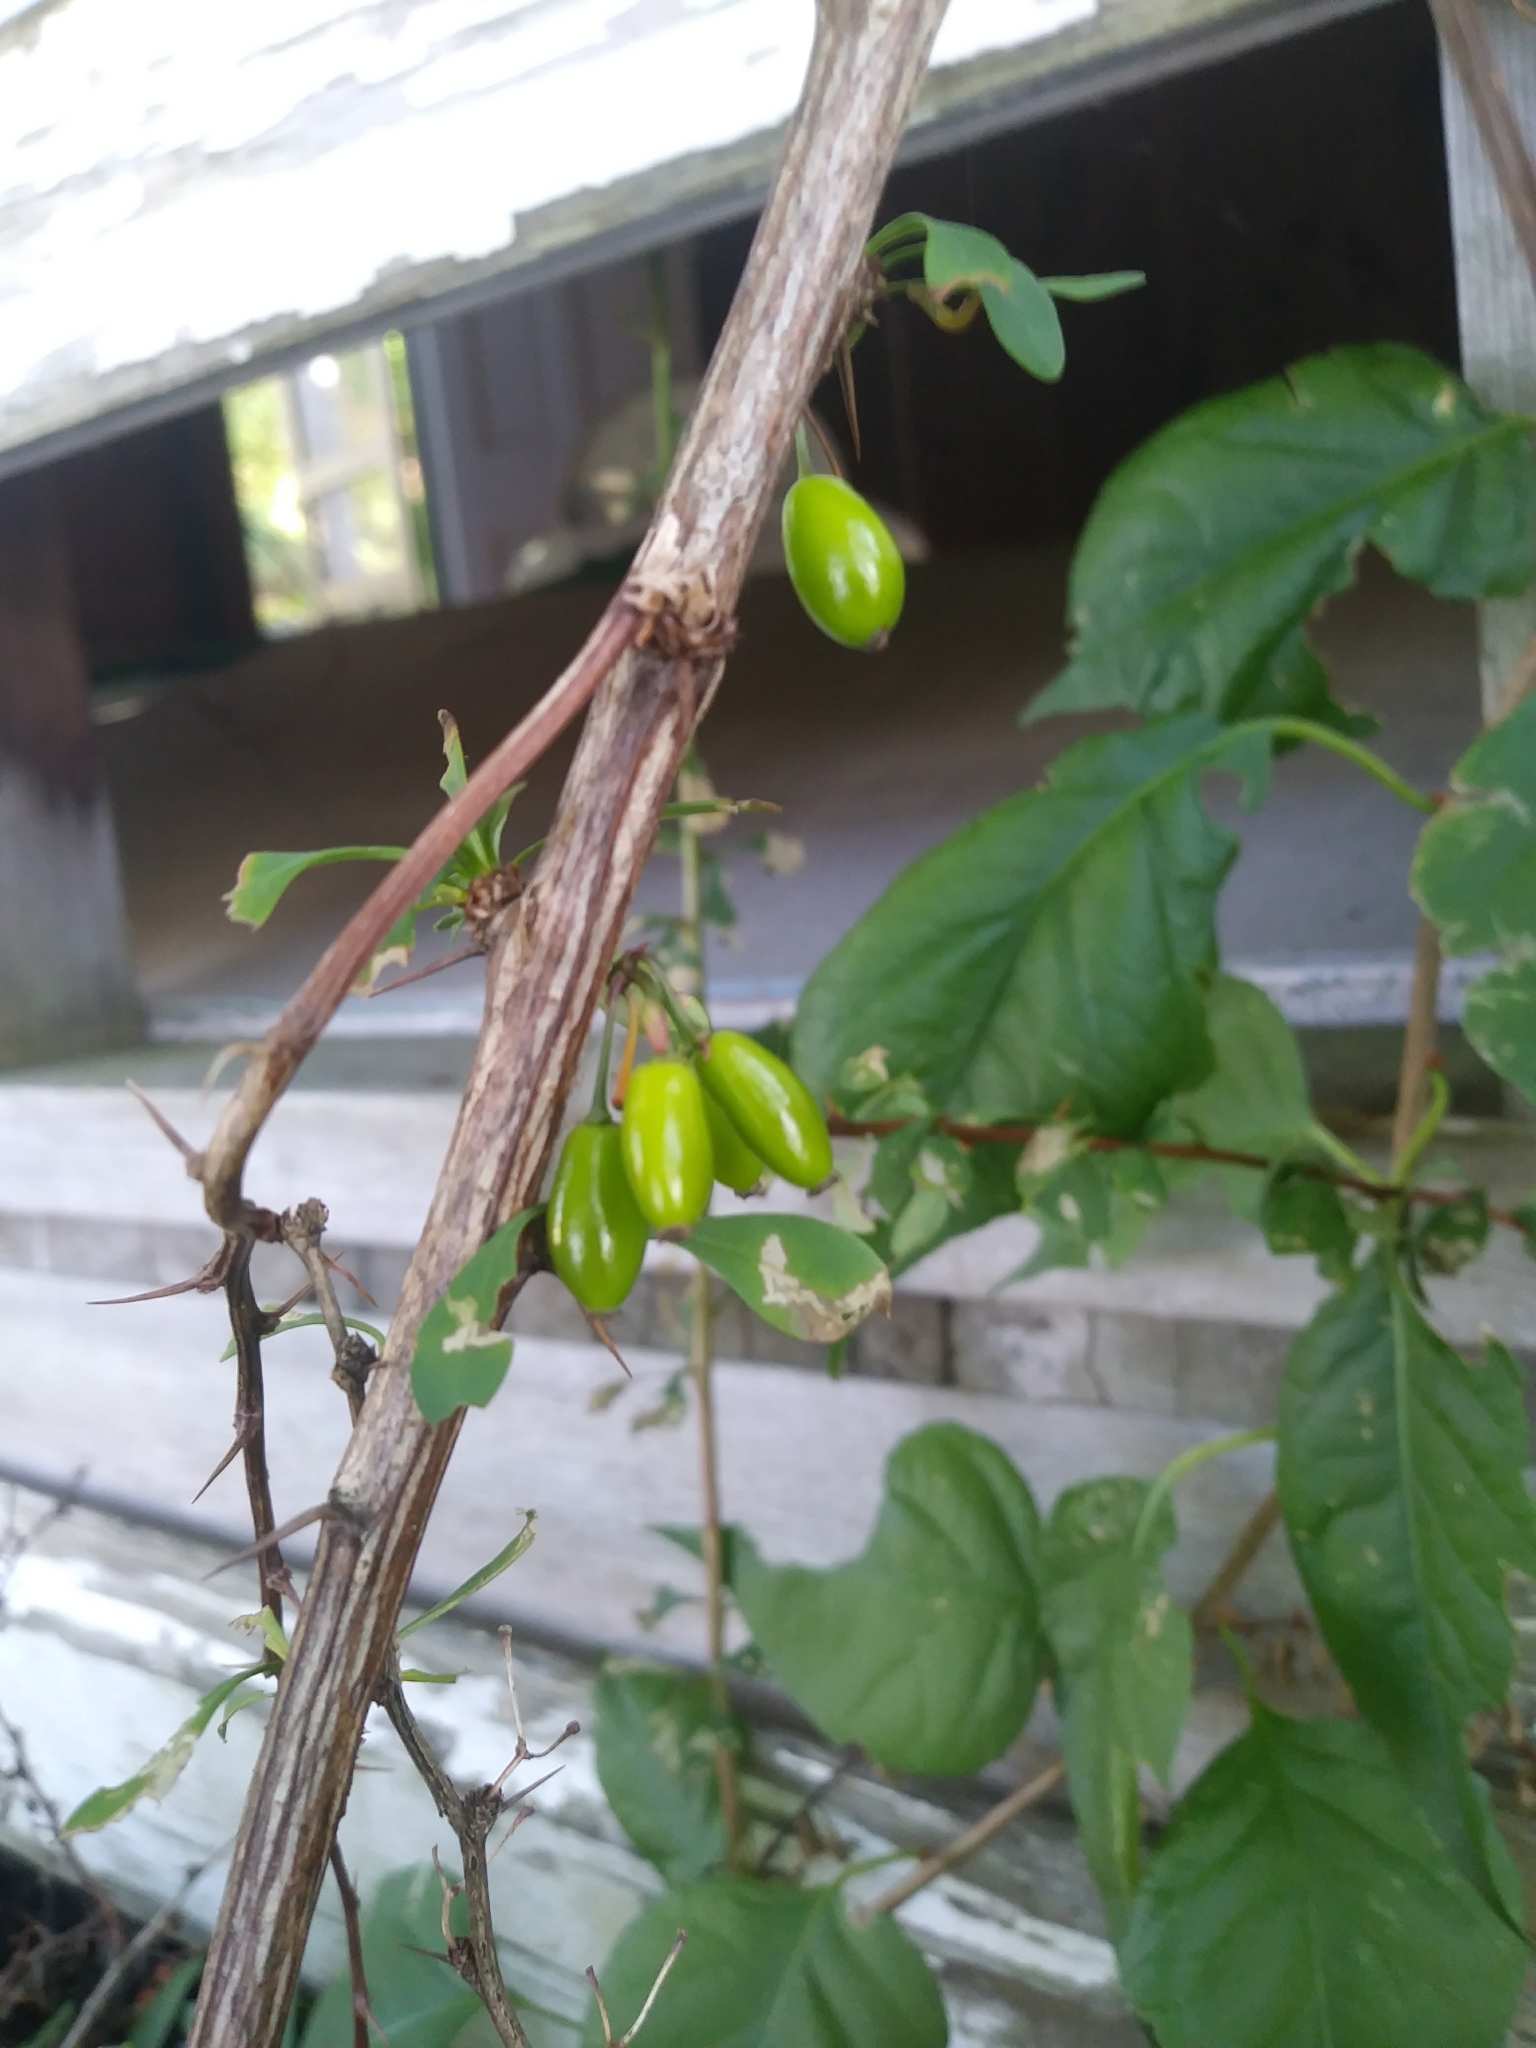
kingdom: Plantae
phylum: Tracheophyta
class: Magnoliopsida
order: Ranunculales
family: Berberidaceae
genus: Berberis
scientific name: Berberis thunbergii
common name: Japanese barberry
